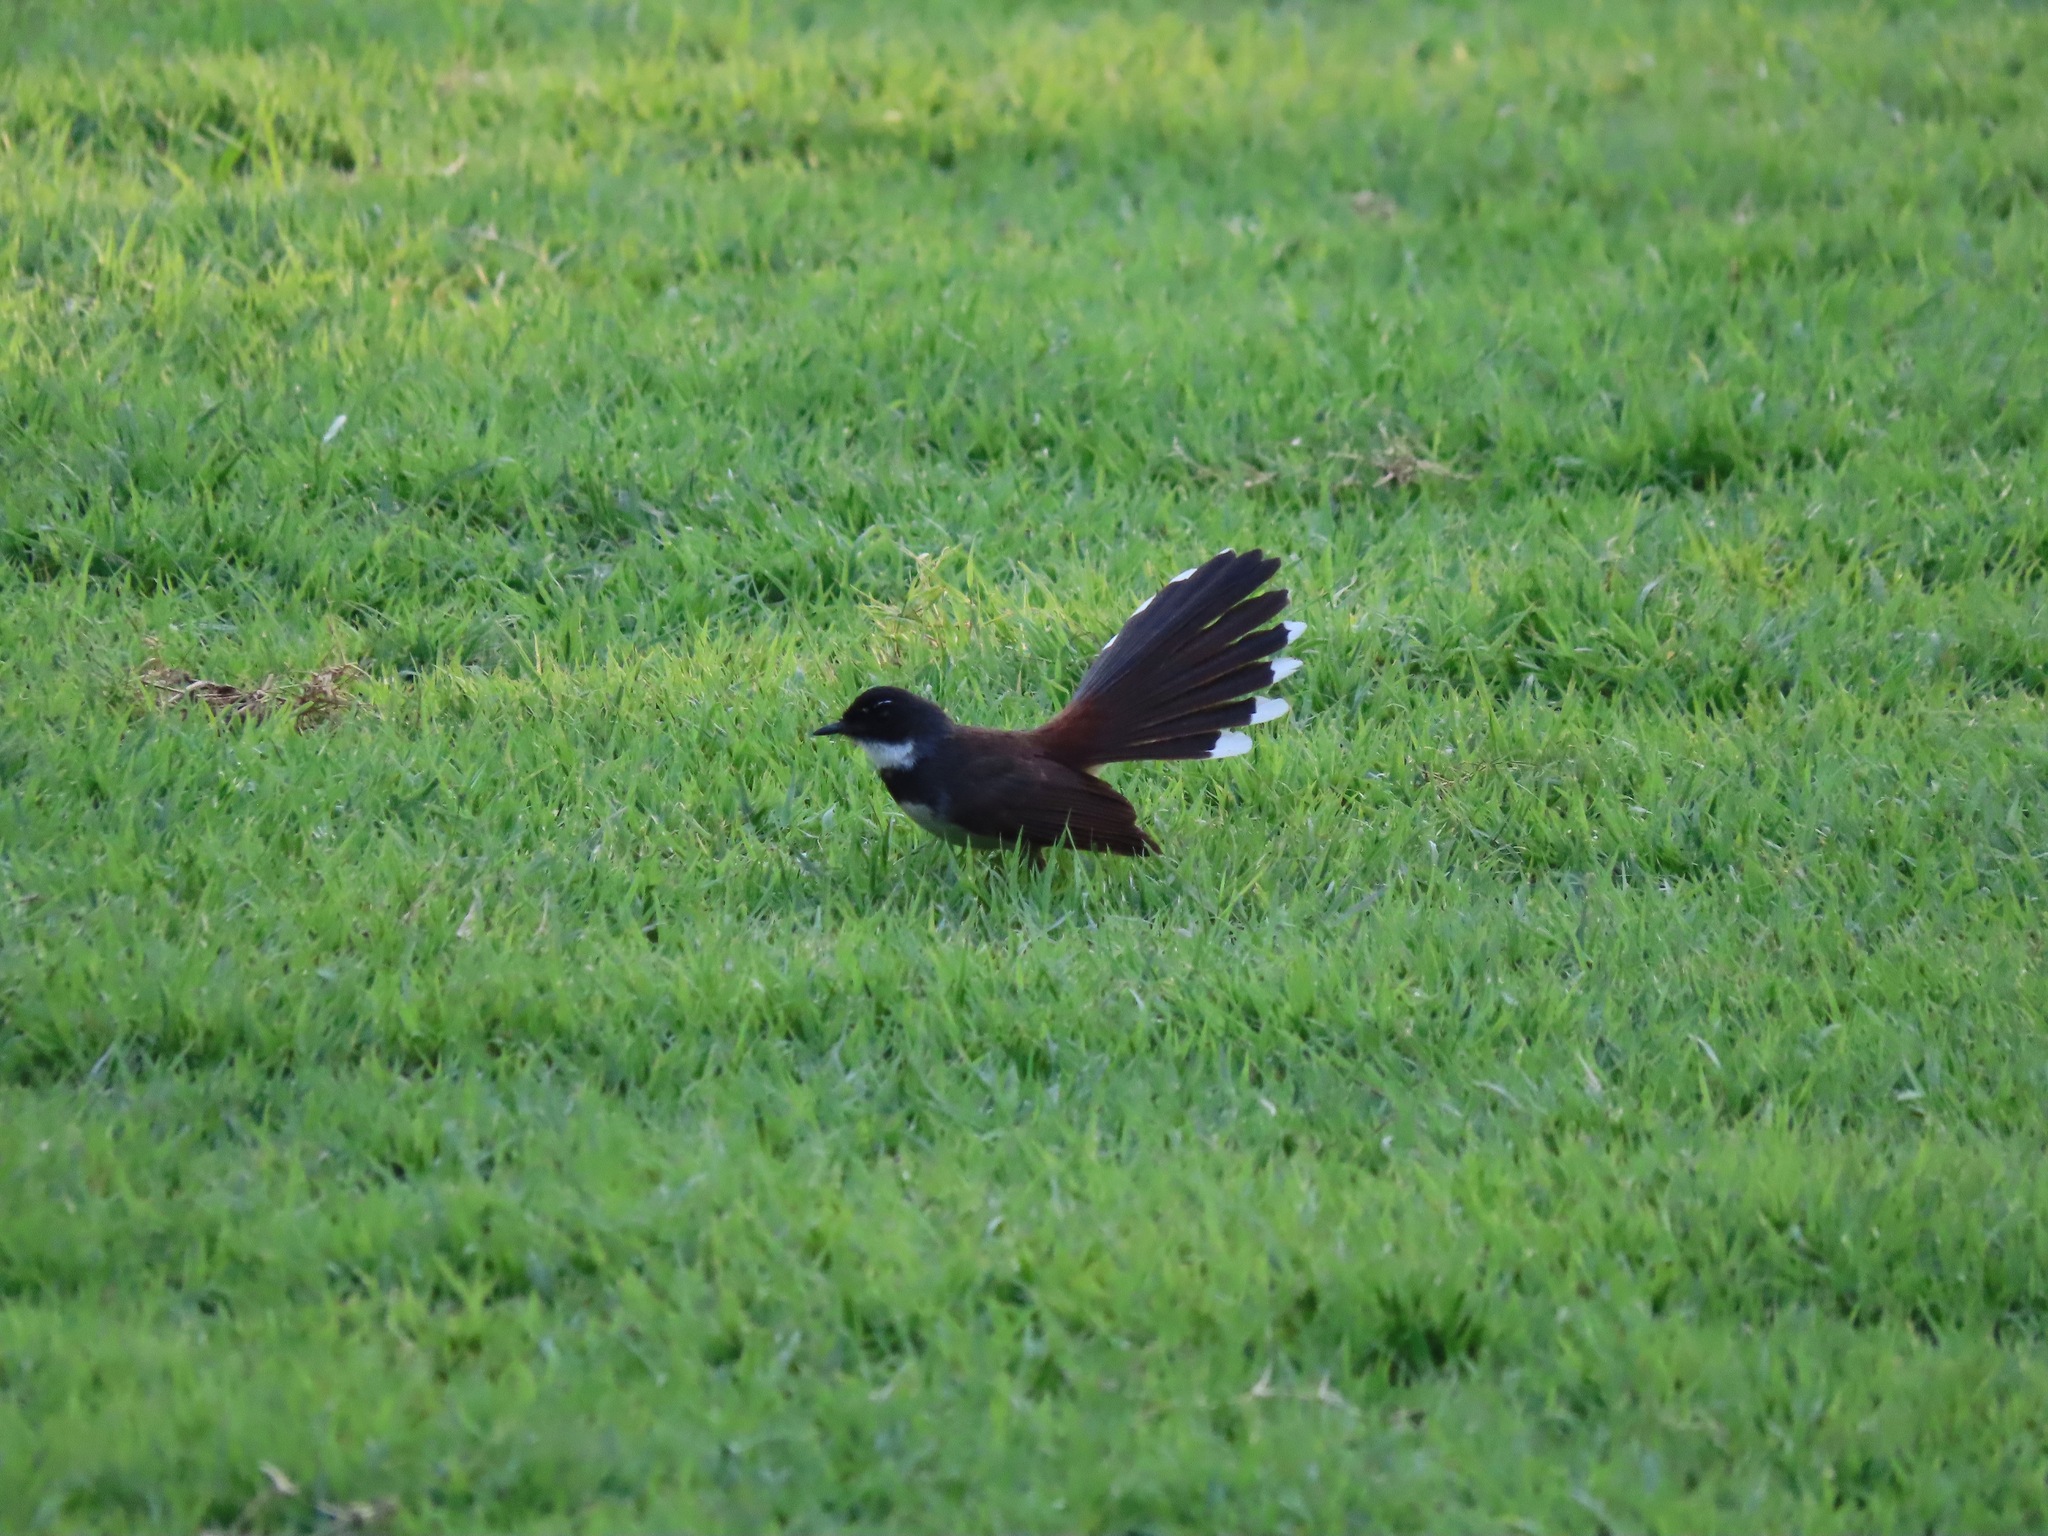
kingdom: Animalia
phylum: Chordata
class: Aves
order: Passeriformes
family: Rhipiduridae
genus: Rhipidura
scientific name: Rhipidura javanica
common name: Pied fantail
